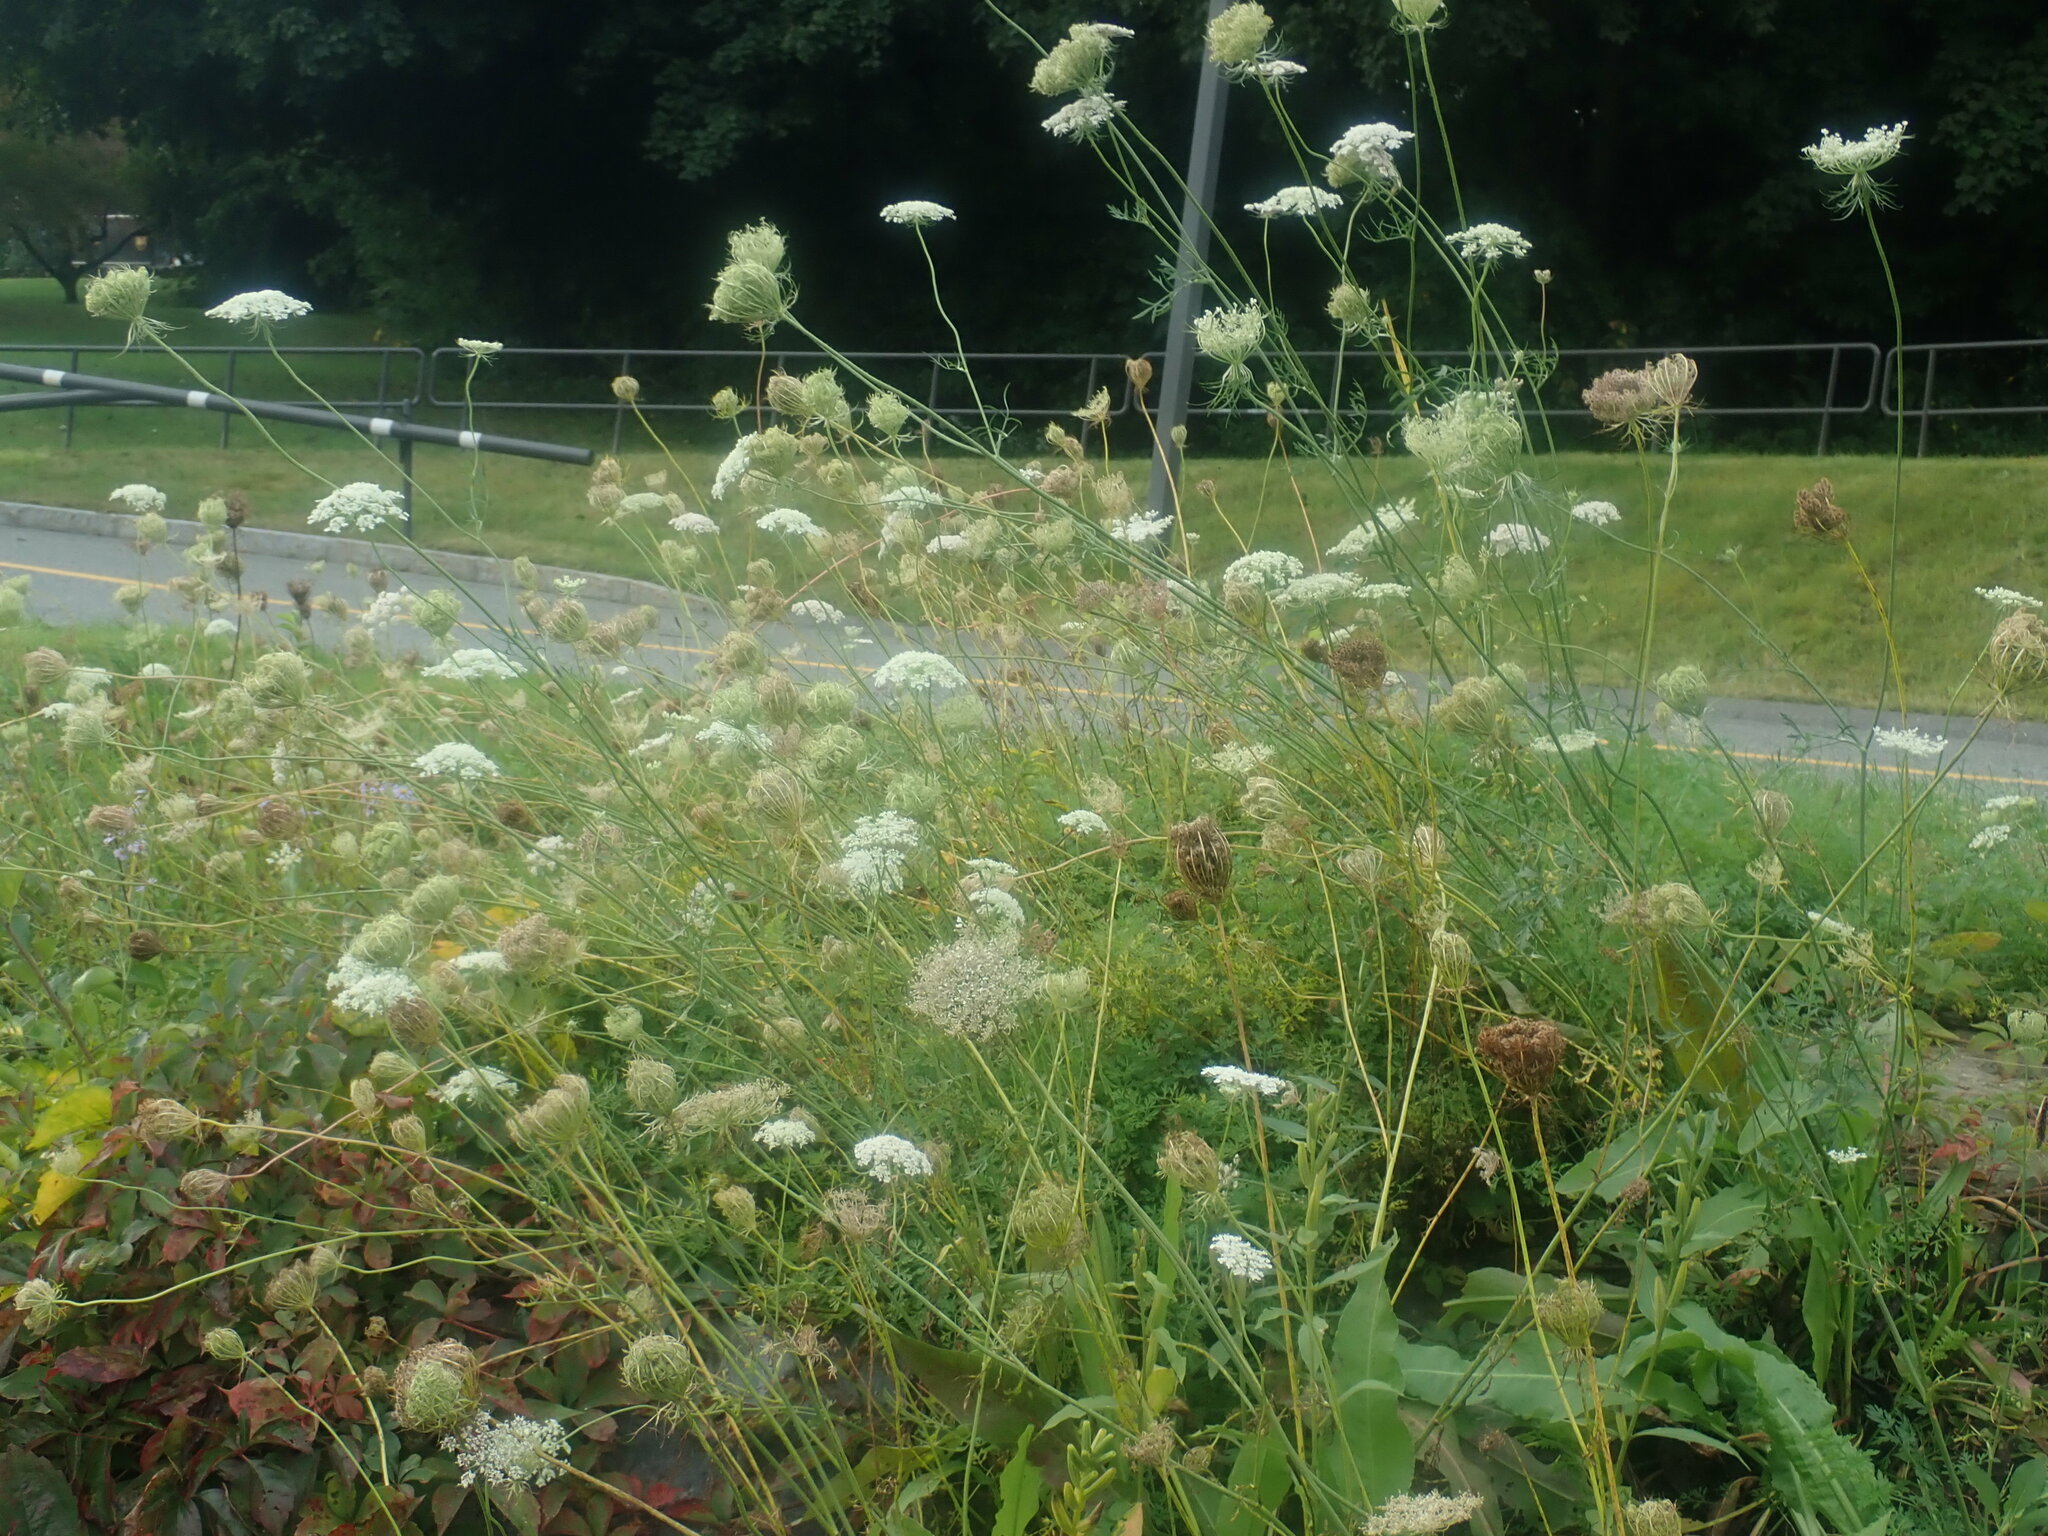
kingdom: Plantae
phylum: Tracheophyta
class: Magnoliopsida
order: Apiales
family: Apiaceae
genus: Daucus
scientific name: Daucus carota
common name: Wild carrot
